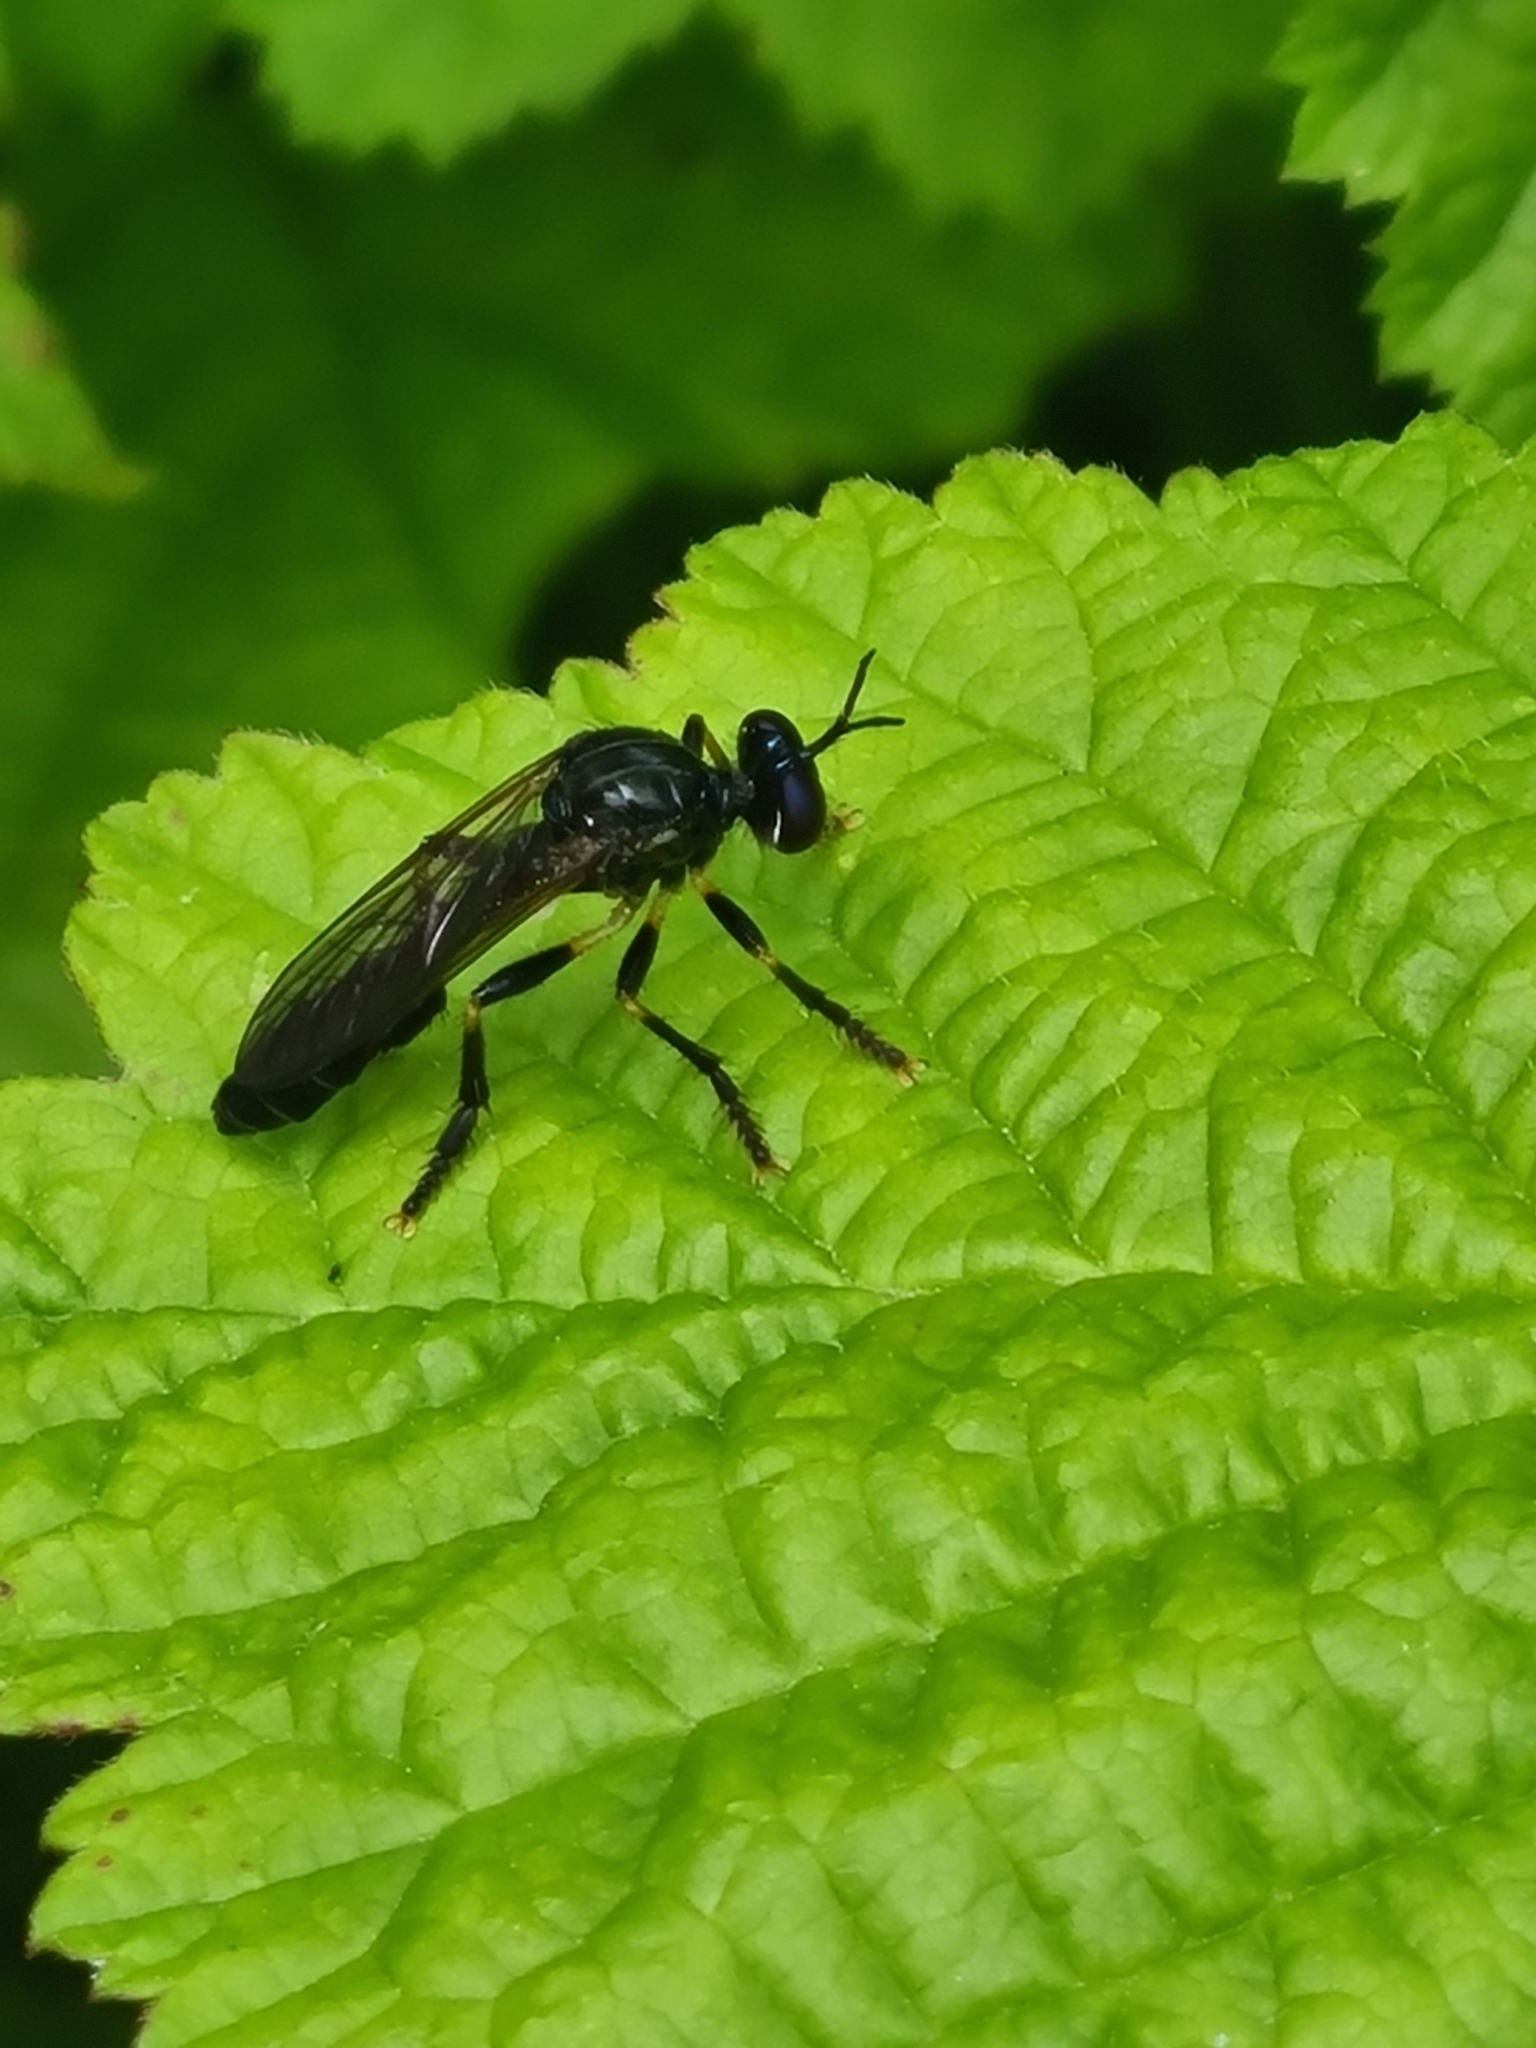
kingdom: Animalia
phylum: Arthropoda
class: Insecta
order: Diptera
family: Asilidae
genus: Dioctria
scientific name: Dioctria cothurnata
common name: Scarce red-legged robberfly
